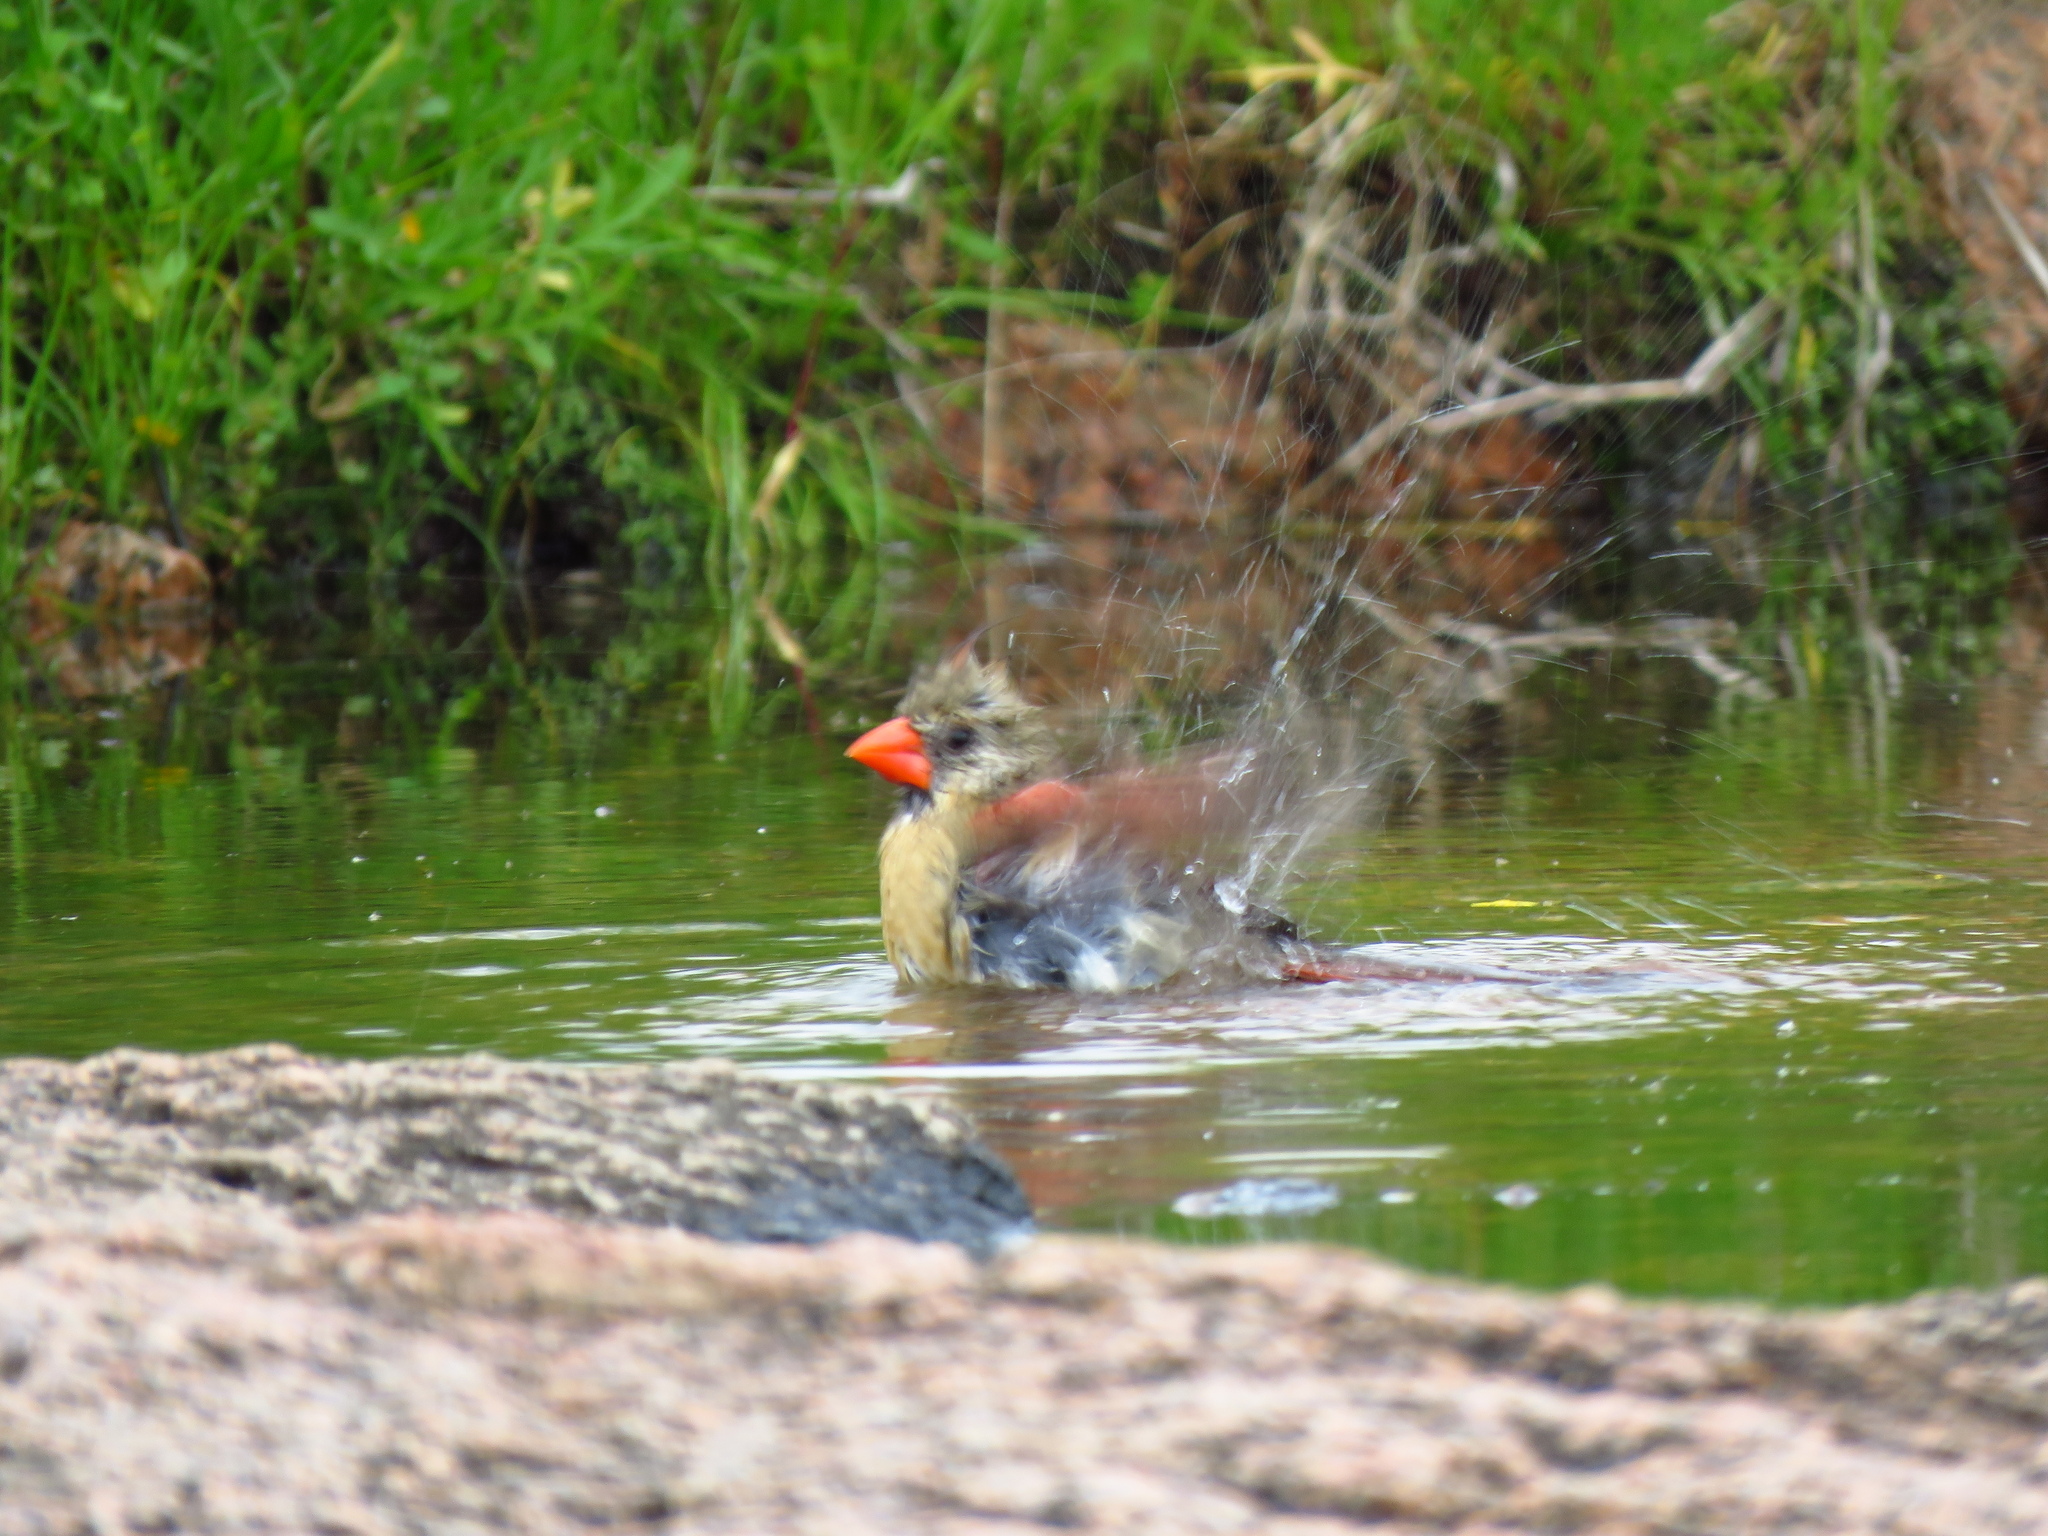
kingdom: Animalia
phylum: Chordata
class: Aves
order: Passeriformes
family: Cardinalidae
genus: Cardinalis
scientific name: Cardinalis cardinalis
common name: Northern cardinal
